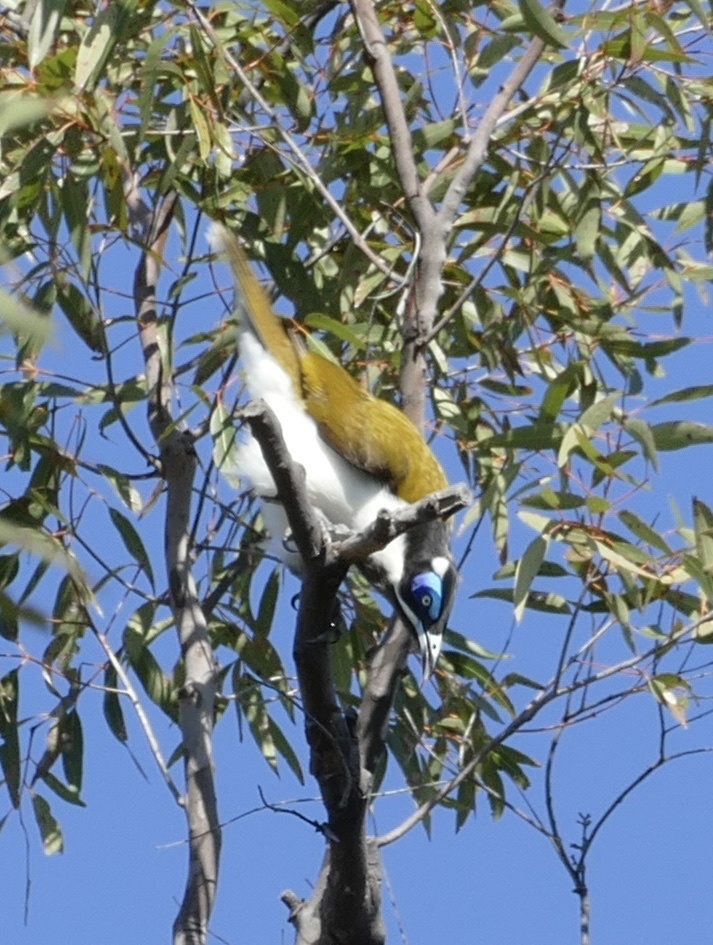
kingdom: Animalia
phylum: Chordata
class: Aves
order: Passeriformes
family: Meliphagidae
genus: Entomyzon
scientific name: Entomyzon cyanotis
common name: Blue-faced honeyeater
